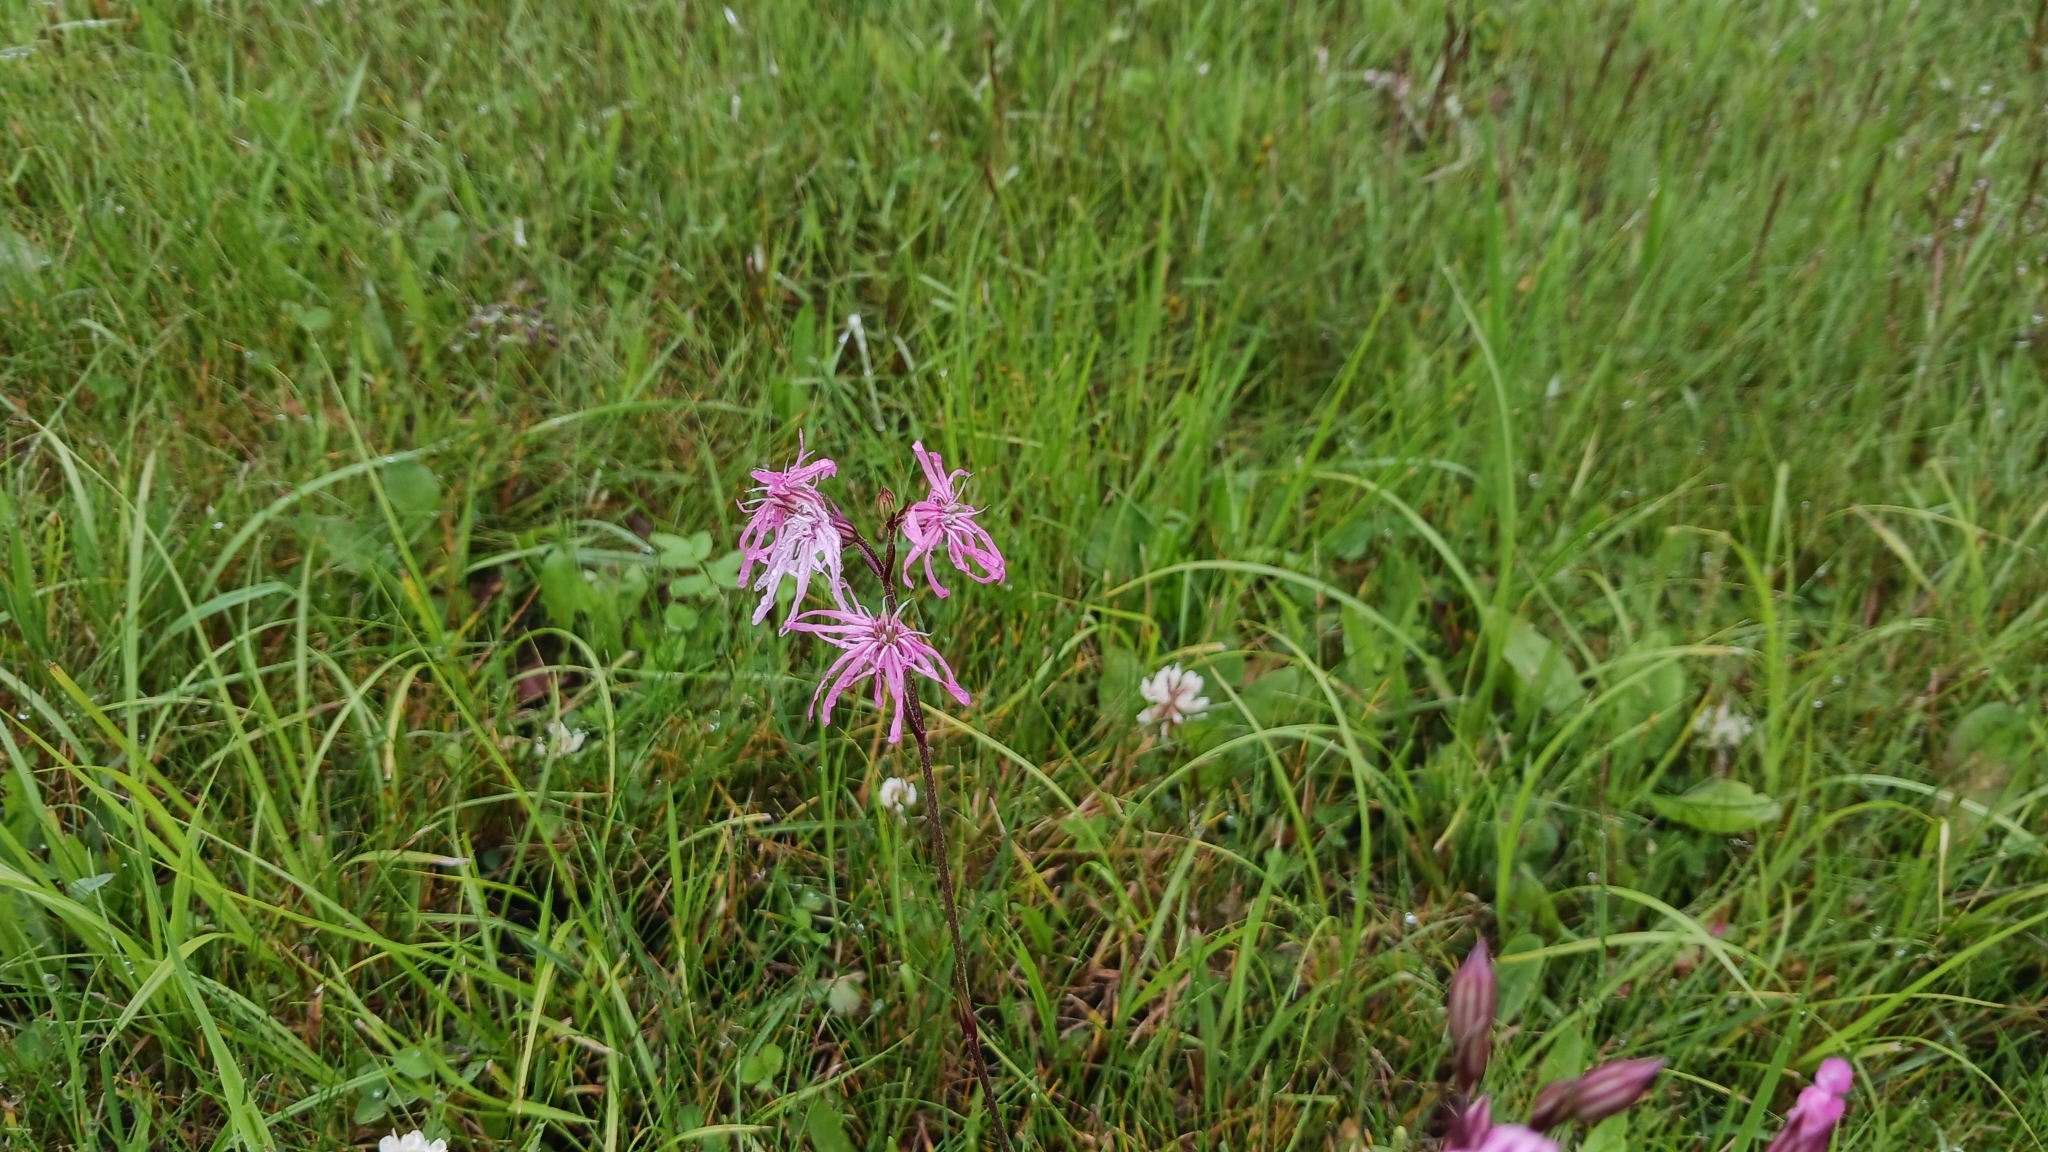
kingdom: Plantae
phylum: Tracheophyta
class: Magnoliopsida
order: Caryophyllales
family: Caryophyllaceae
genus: Silene
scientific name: Silene flos-cuculi
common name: Ragged-robin
